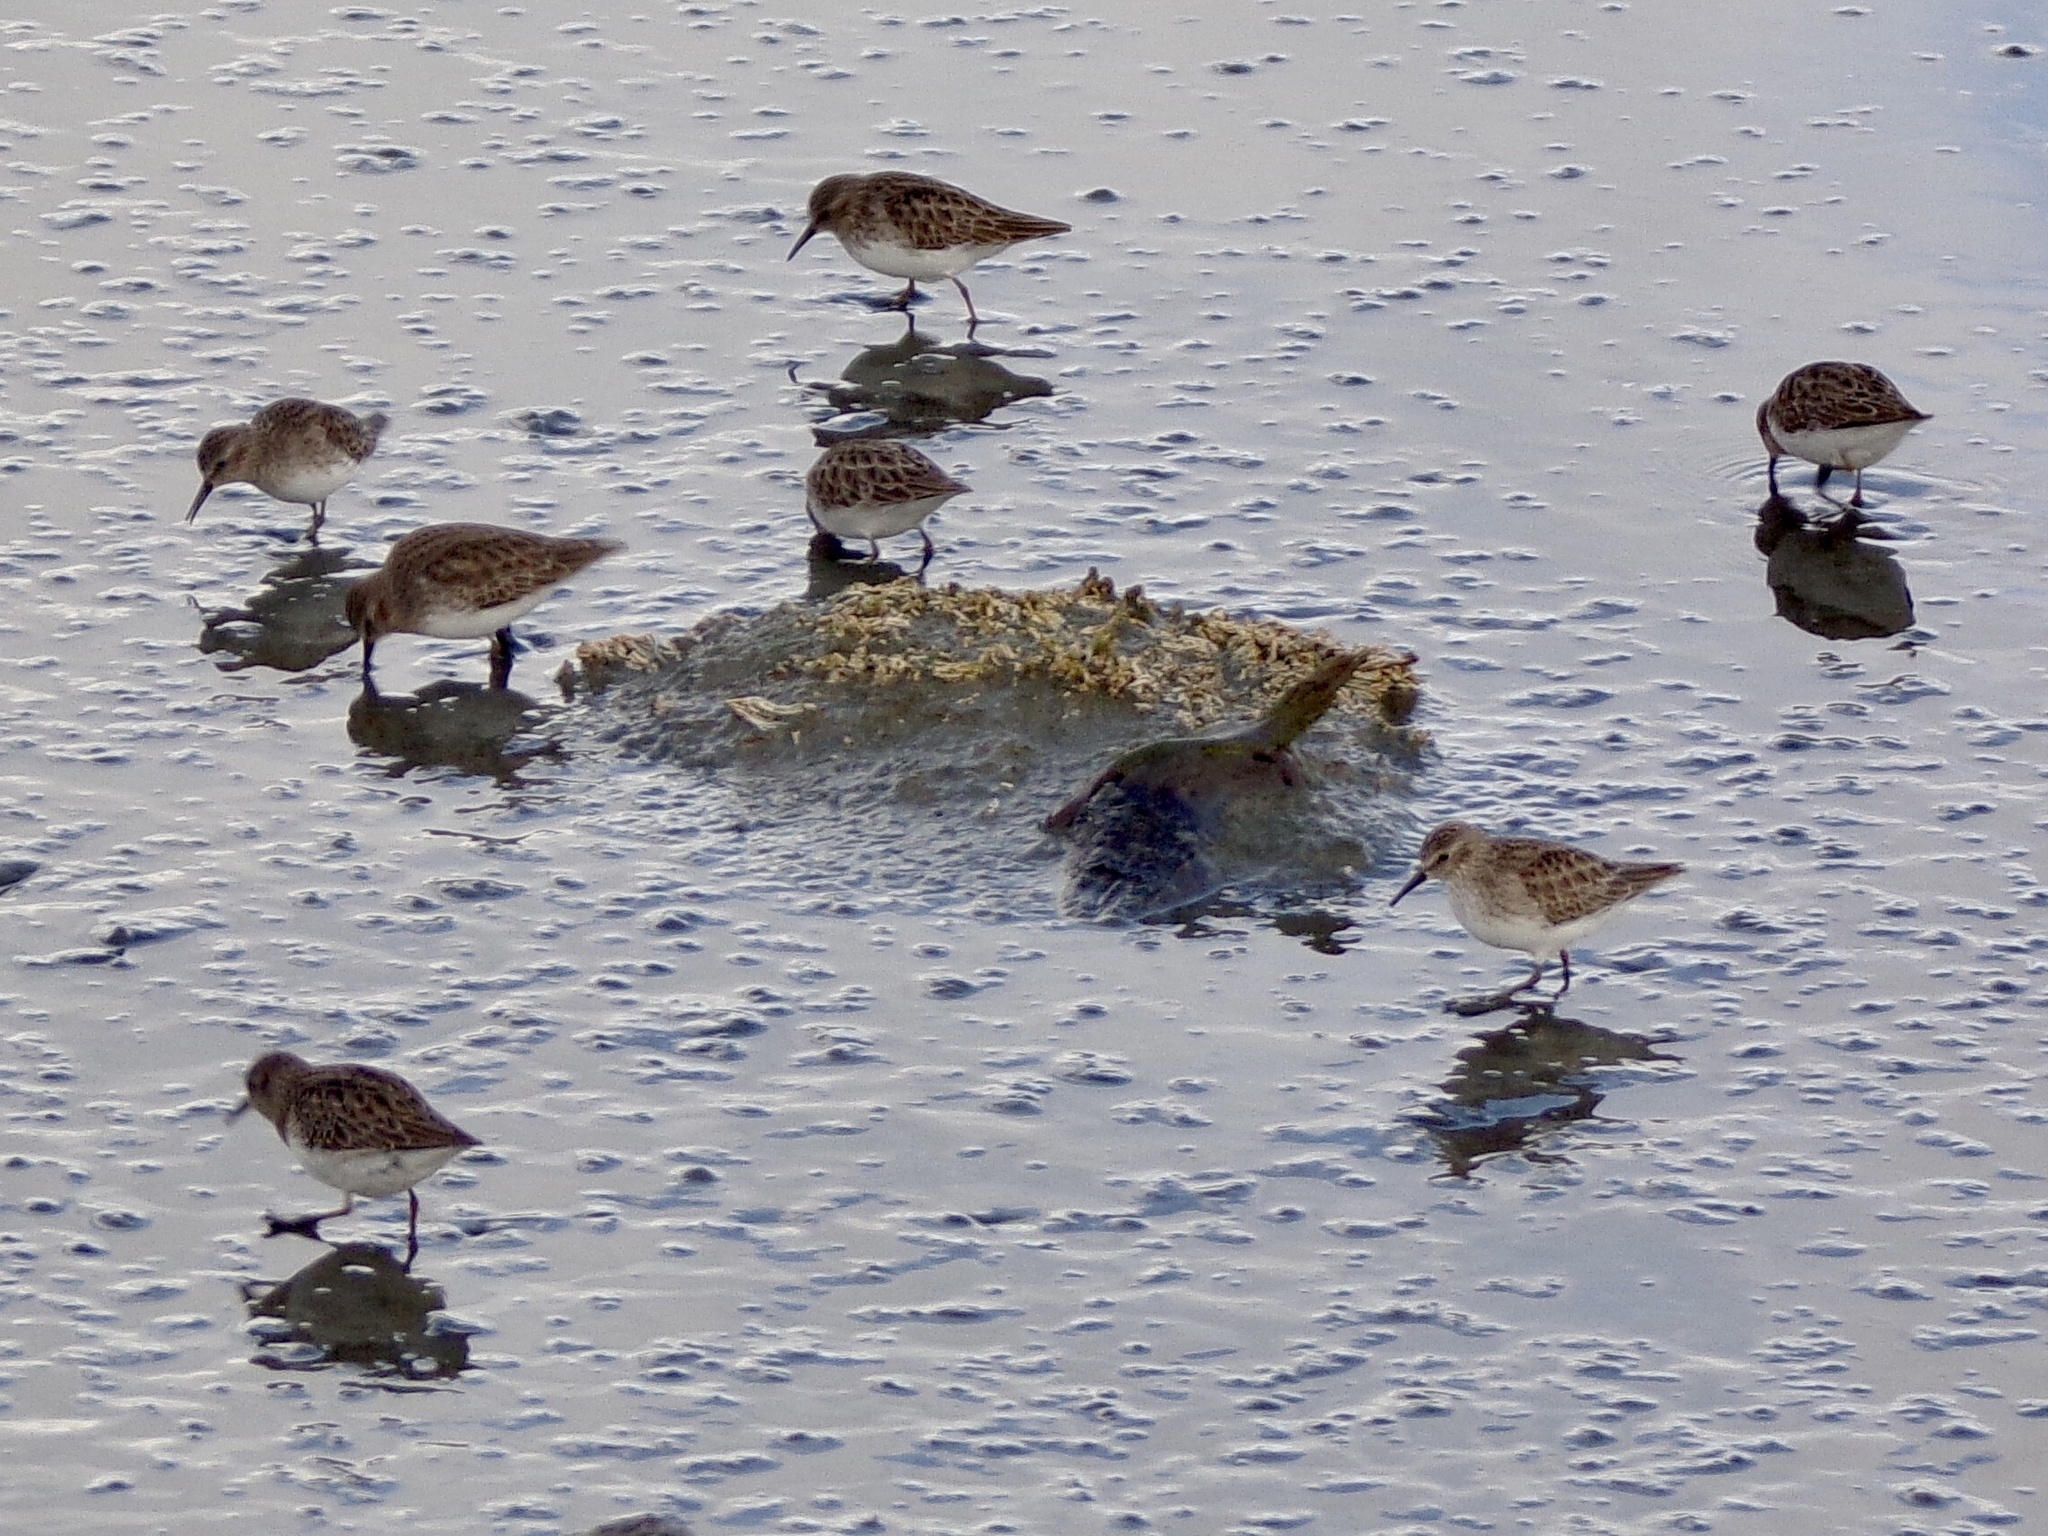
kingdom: Animalia
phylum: Chordata
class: Aves
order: Charadriiformes
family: Scolopacidae
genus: Calidris
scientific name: Calidris minutilla
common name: Least sandpiper
